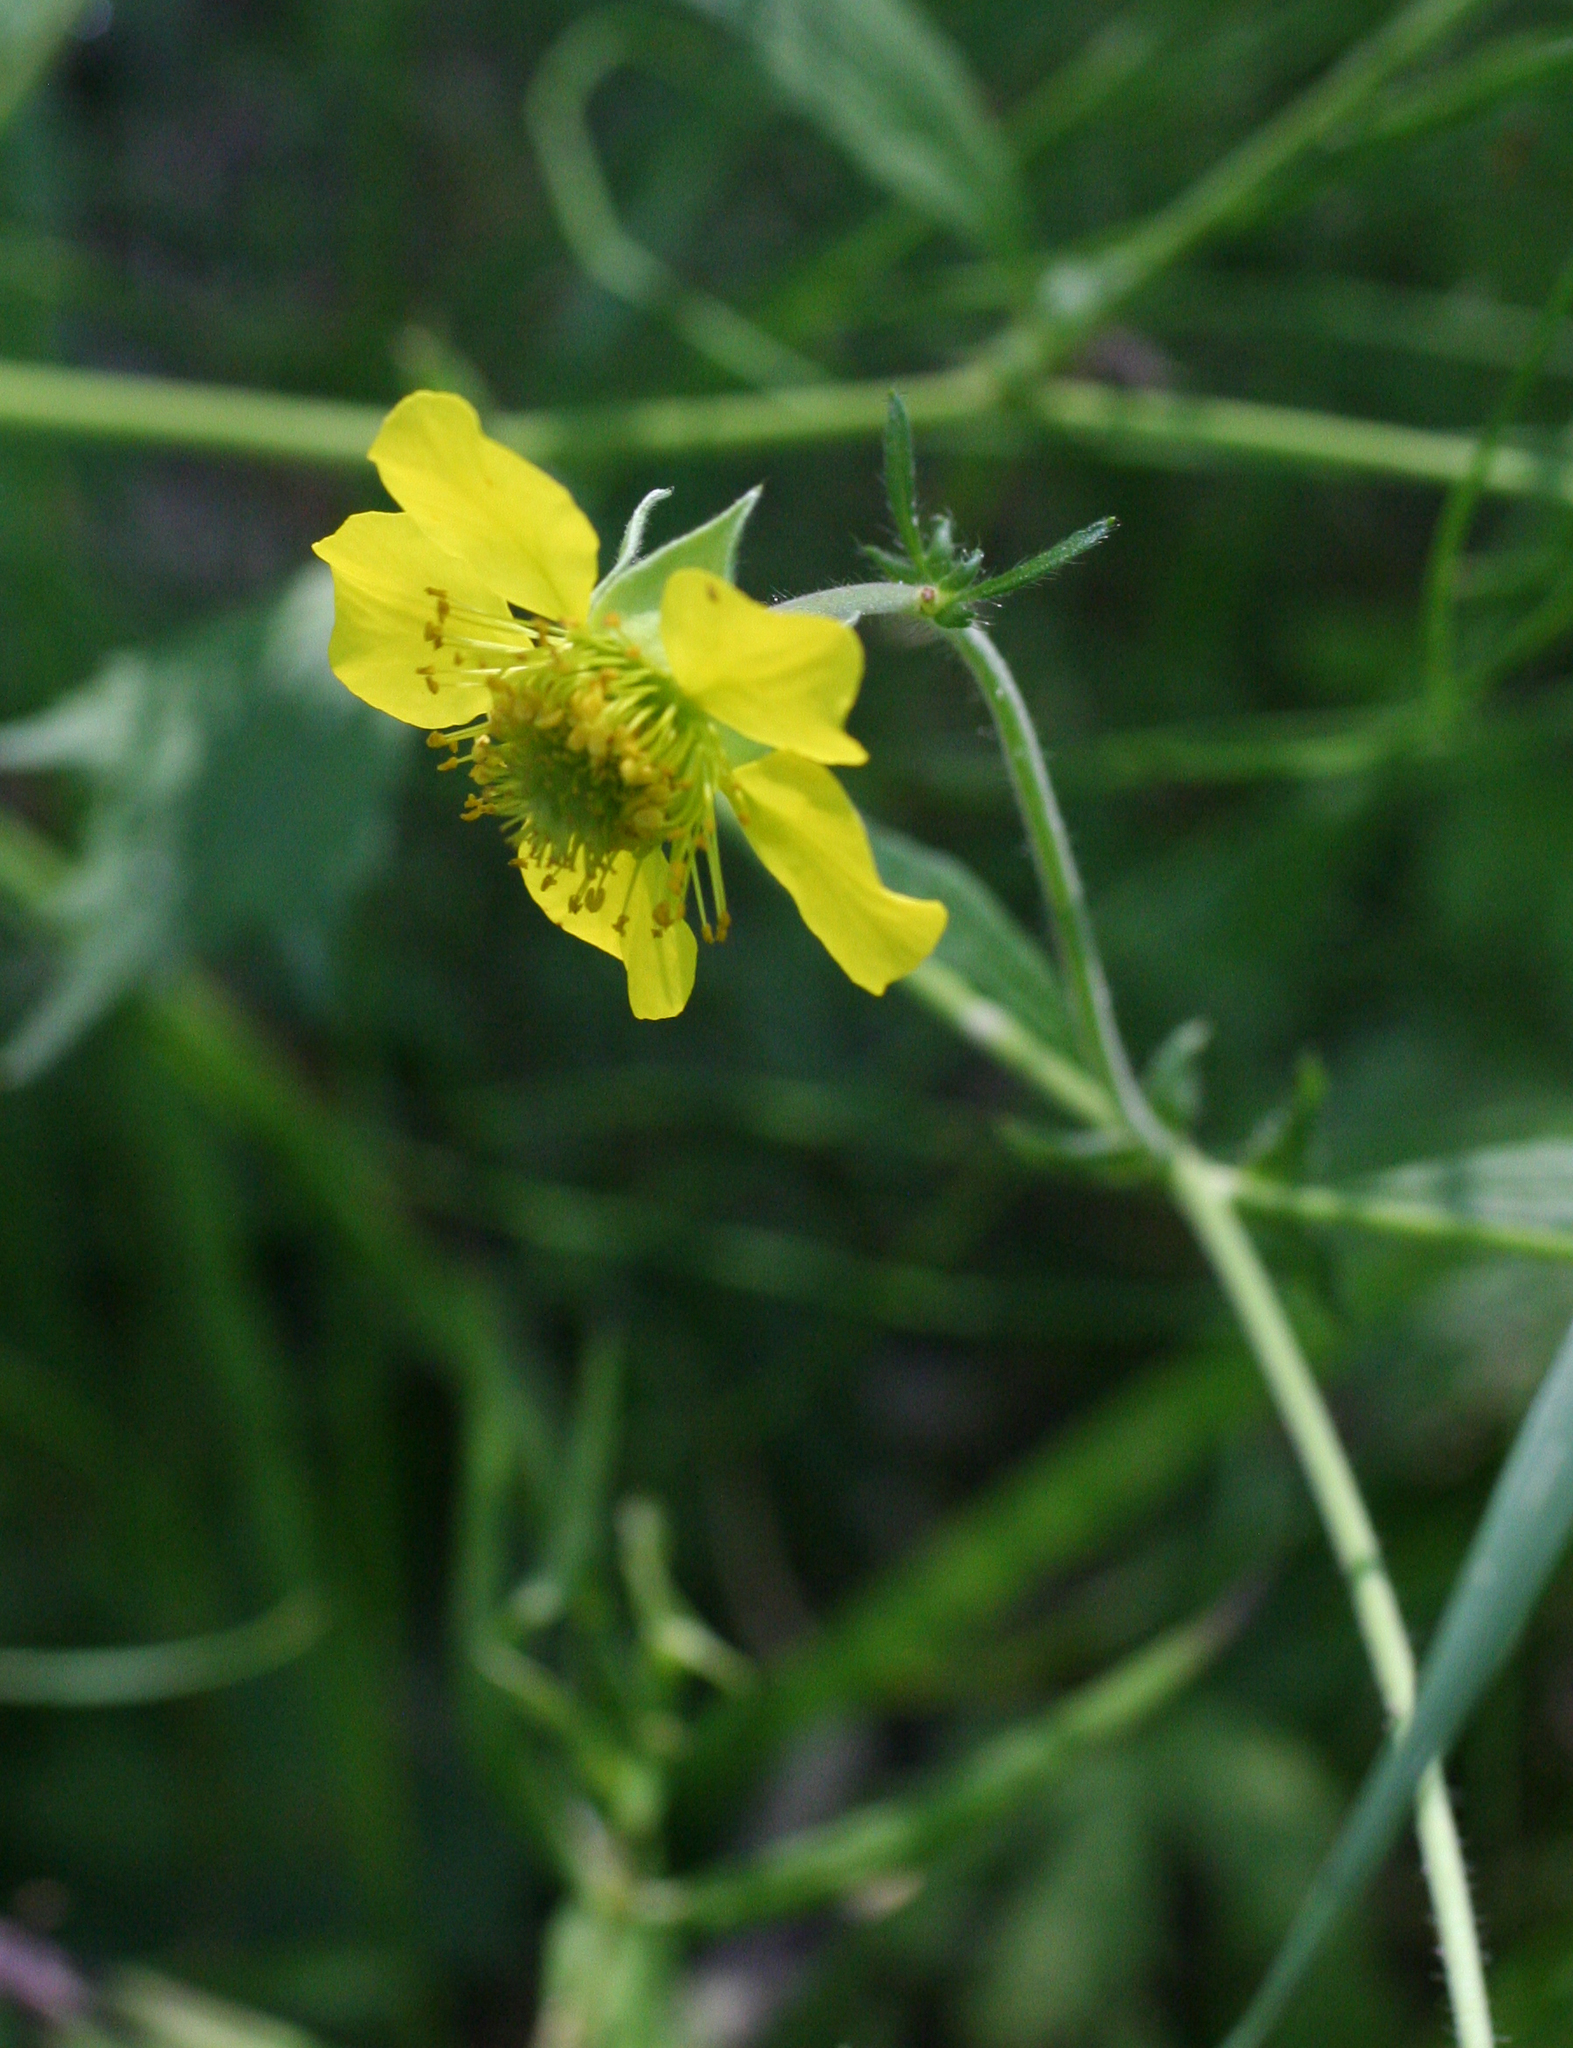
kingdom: Plantae
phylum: Tracheophyta
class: Magnoliopsida
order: Rosales
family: Rosaceae
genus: Geum
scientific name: Geum aleppicum
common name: Yellow avens
